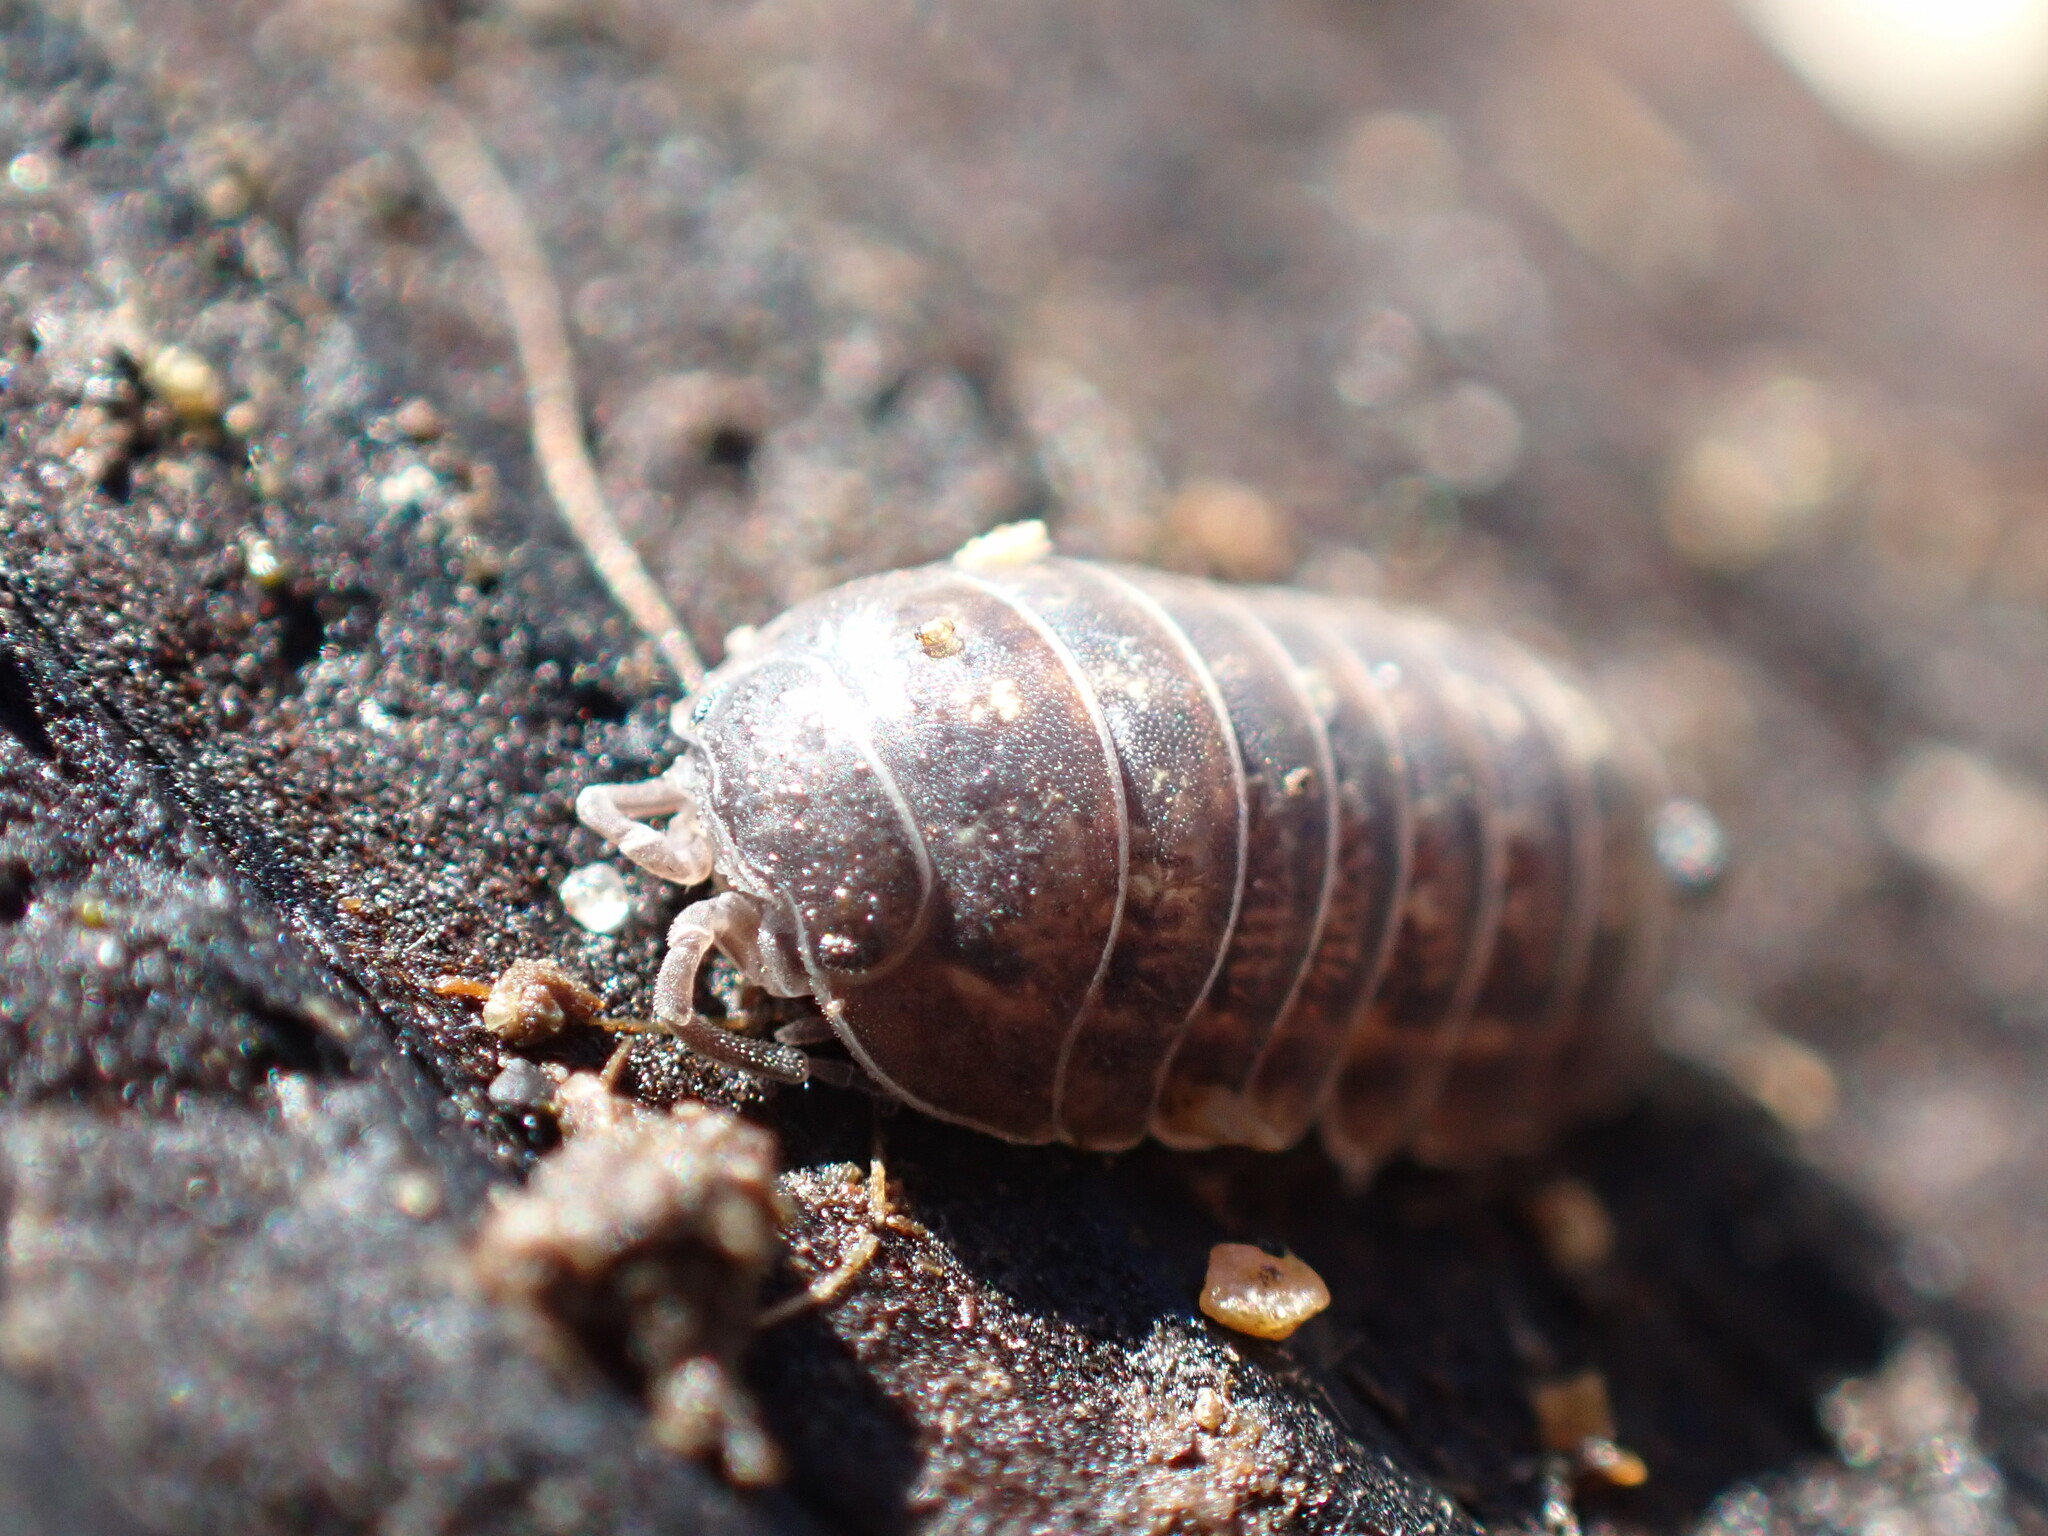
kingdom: Animalia
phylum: Arthropoda
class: Malacostraca
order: Isopoda
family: Armadillidiidae
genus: Armadillidium
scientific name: Armadillidium vulgare
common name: Common pill woodlouse
